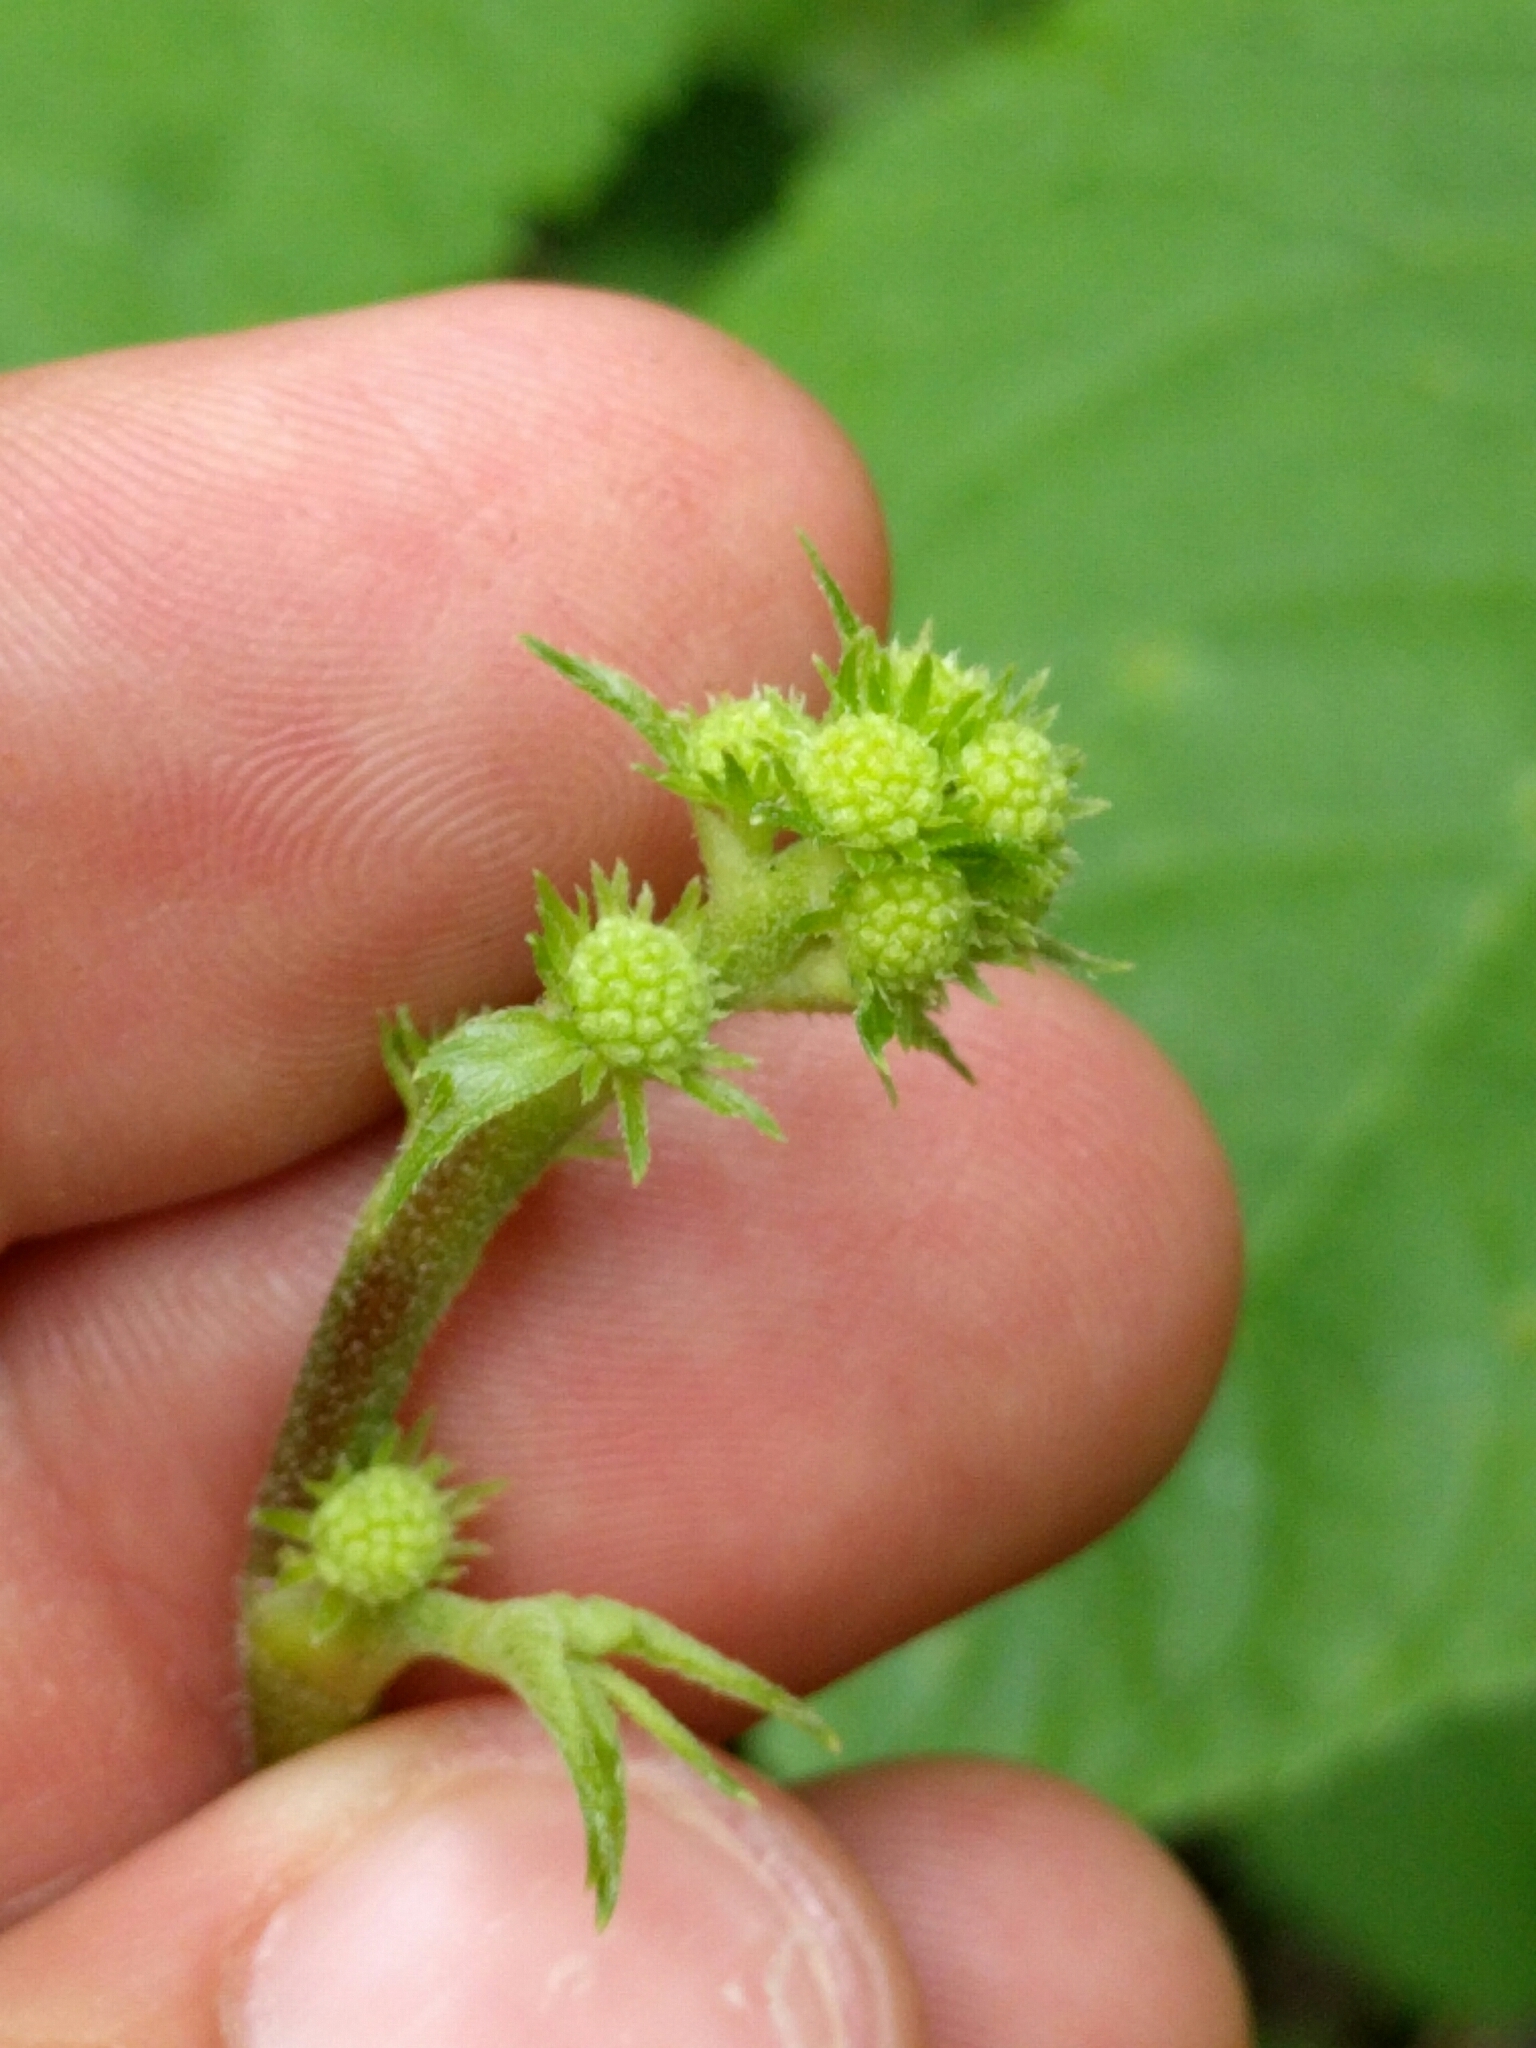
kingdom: Plantae
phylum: Tracheophyta
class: Magnoliopsida
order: Apiales
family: Araliaceae
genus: Aralia
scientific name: Aralia californica
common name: California-ginseng
